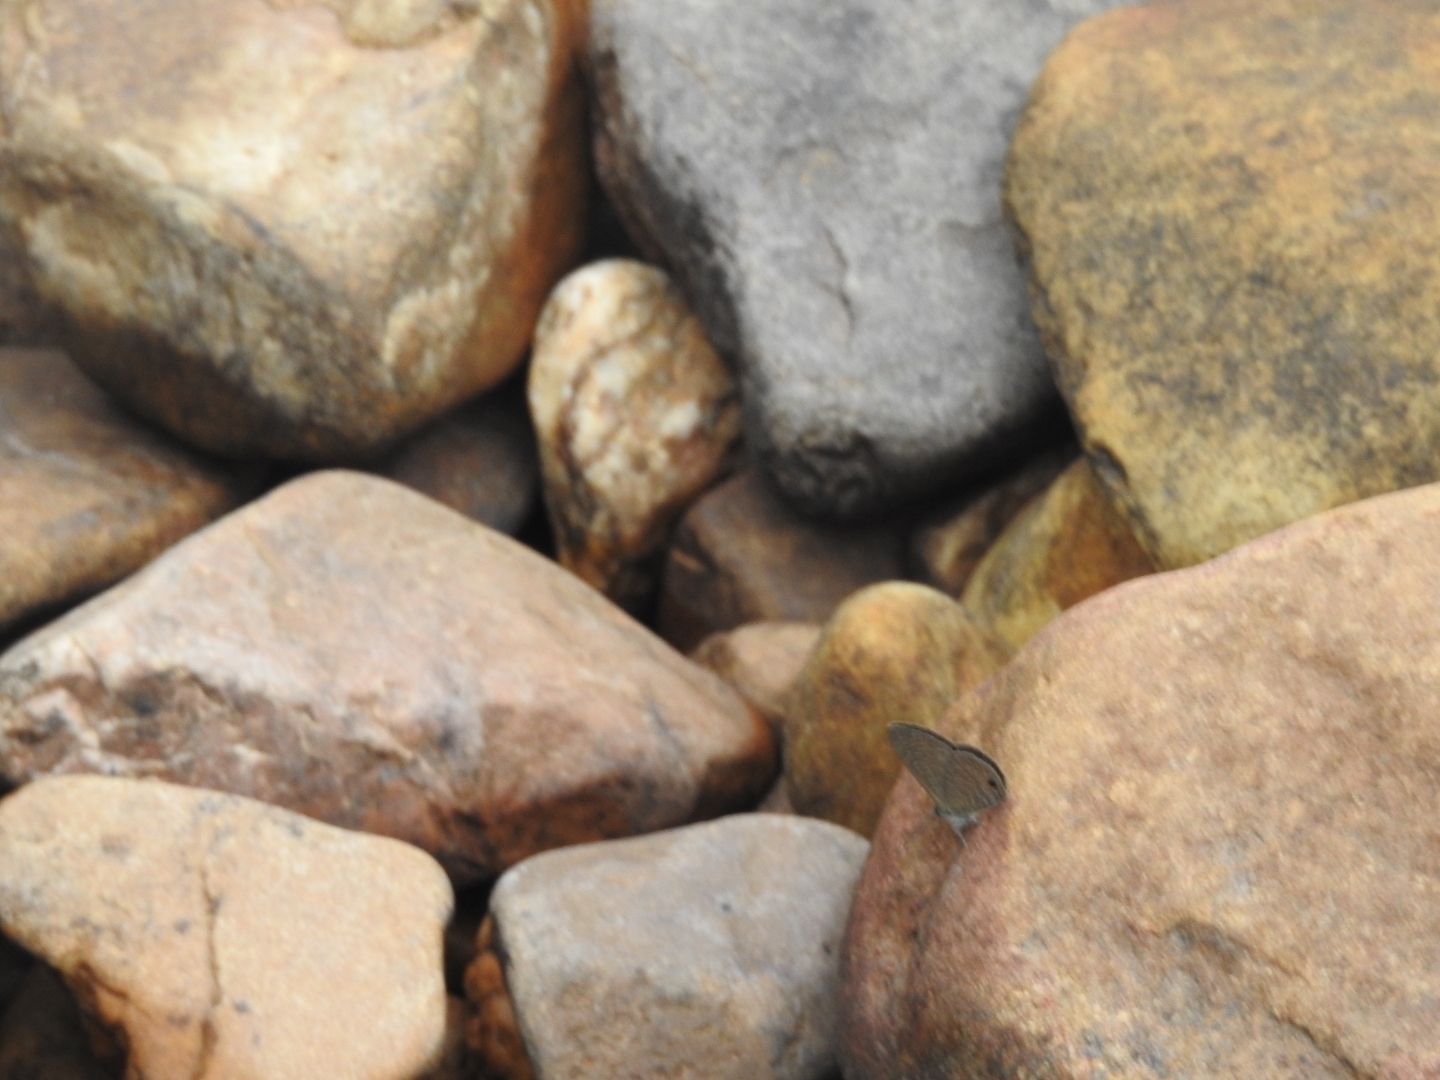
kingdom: Animalia
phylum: Arthropoda
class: Insecta
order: Lepidoptera
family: Lycaenidae
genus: Prosotas
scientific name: Prosotas dubiosa
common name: Tailless lineblue
